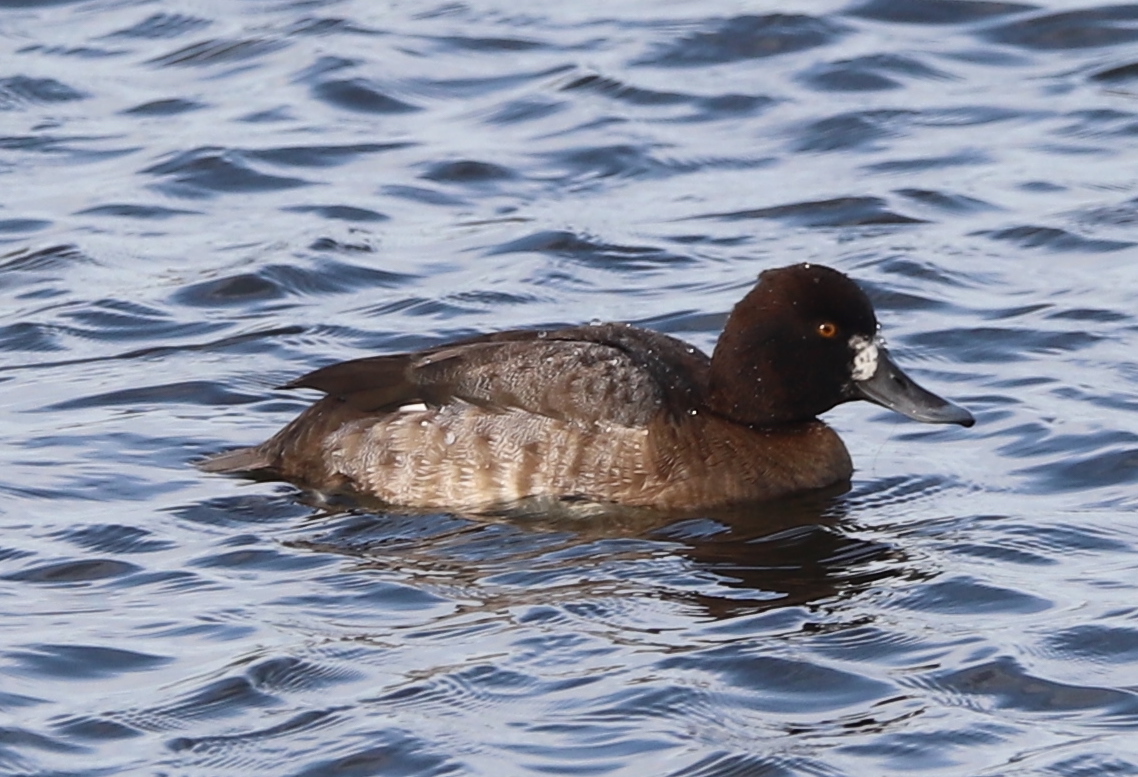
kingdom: Animalia
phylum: Chordata
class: Aves
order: Anseriformes
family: Anatidae
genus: Aythya
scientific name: Aythya affinis
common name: Lesser scaup
